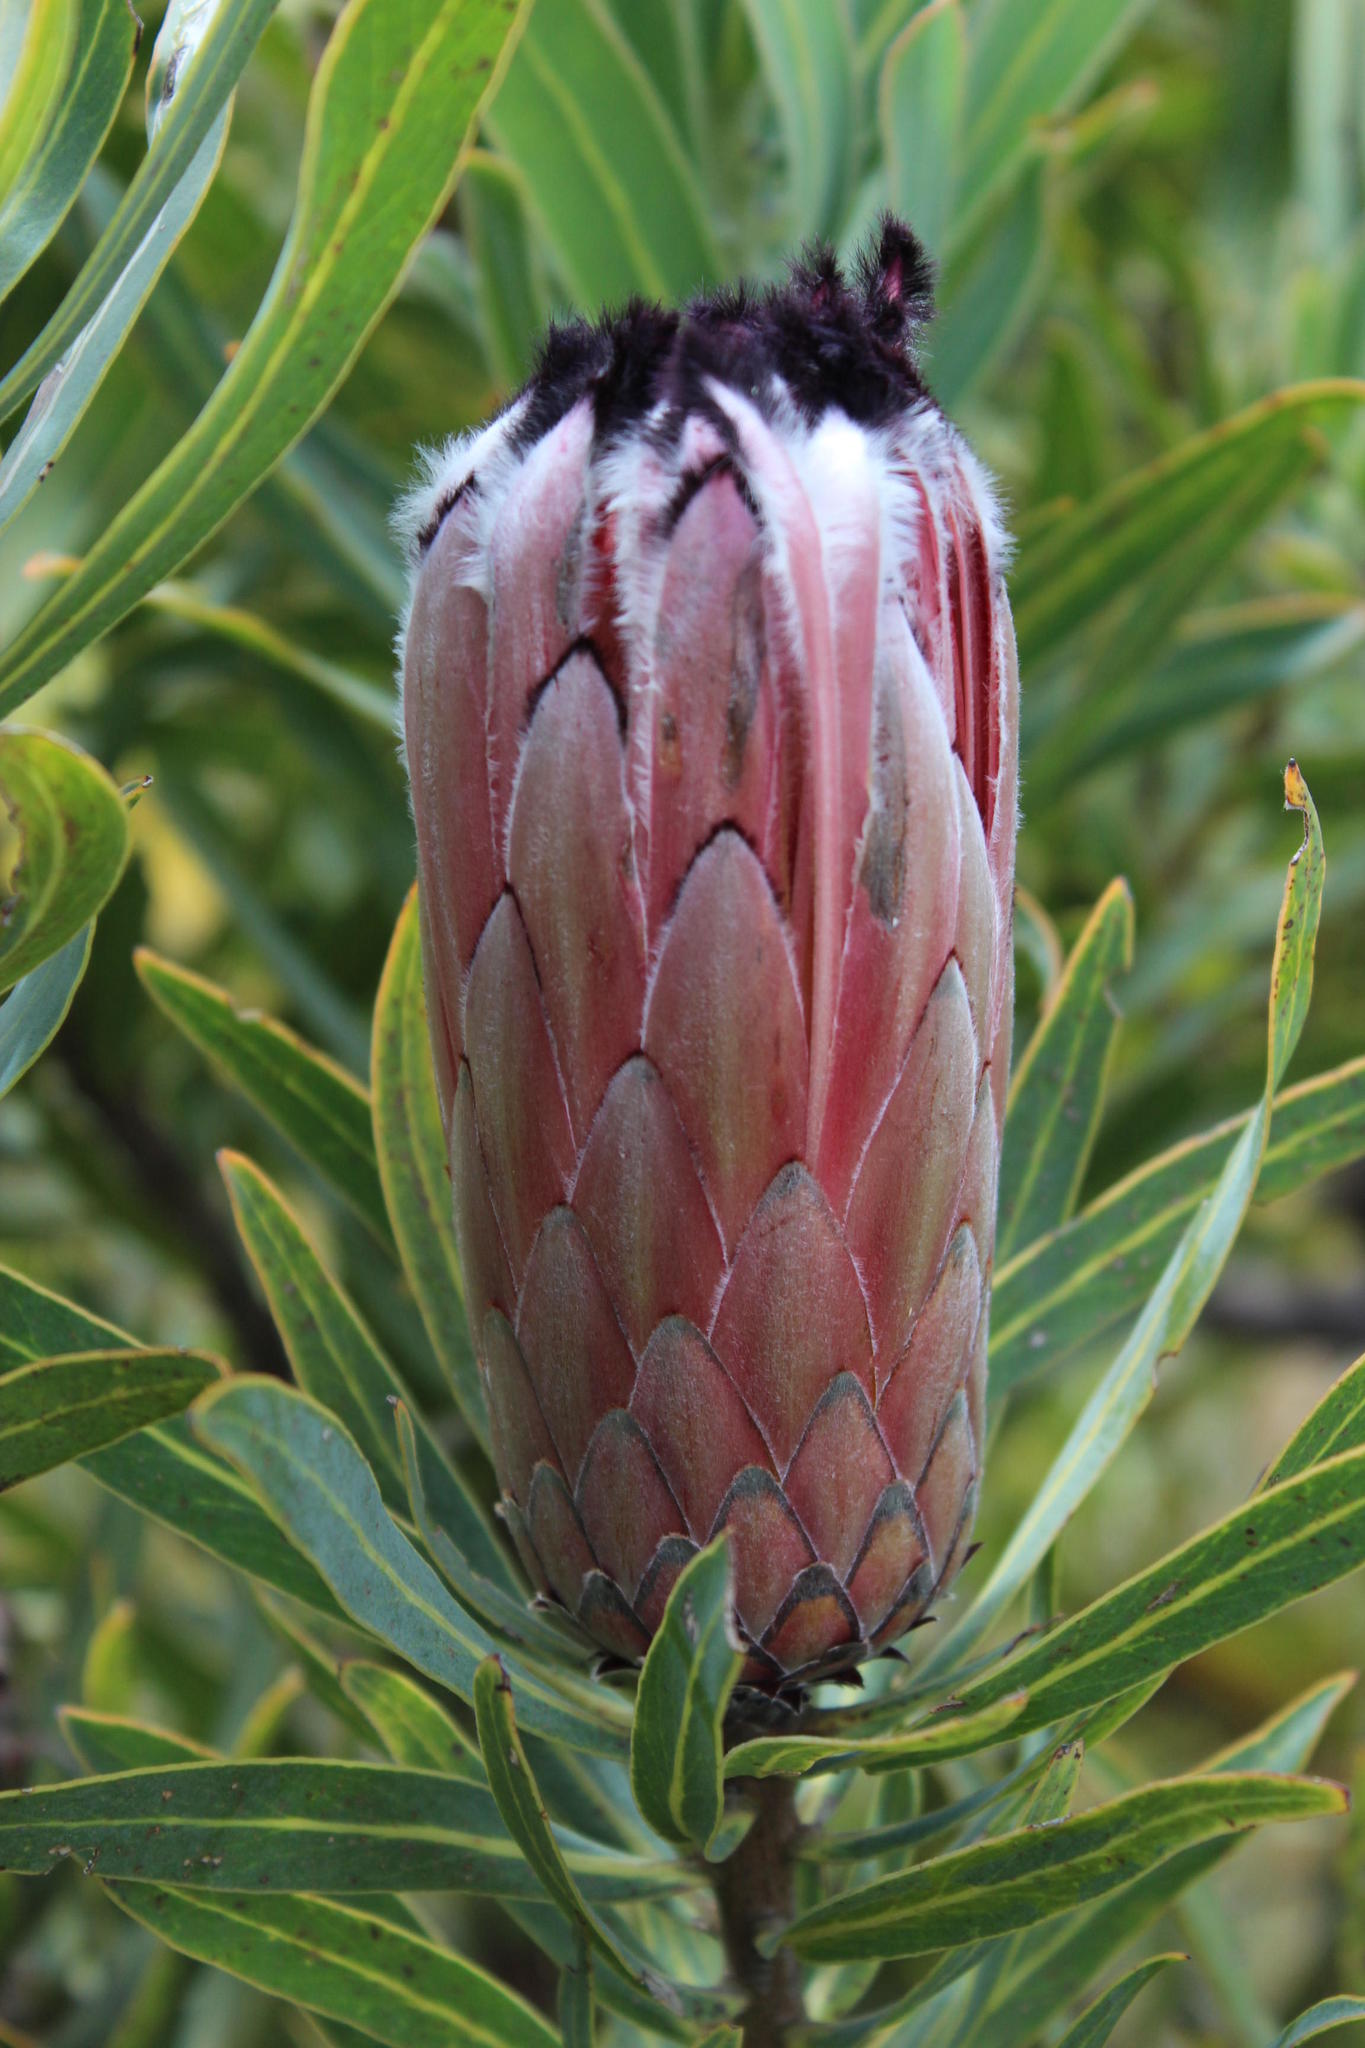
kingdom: Plantae
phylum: Tracheophyta
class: Magnoliopsida
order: Proteales
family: Proteaceae
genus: Protea
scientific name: Protea laurifolia
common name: Grey-leaf sugarbsh
